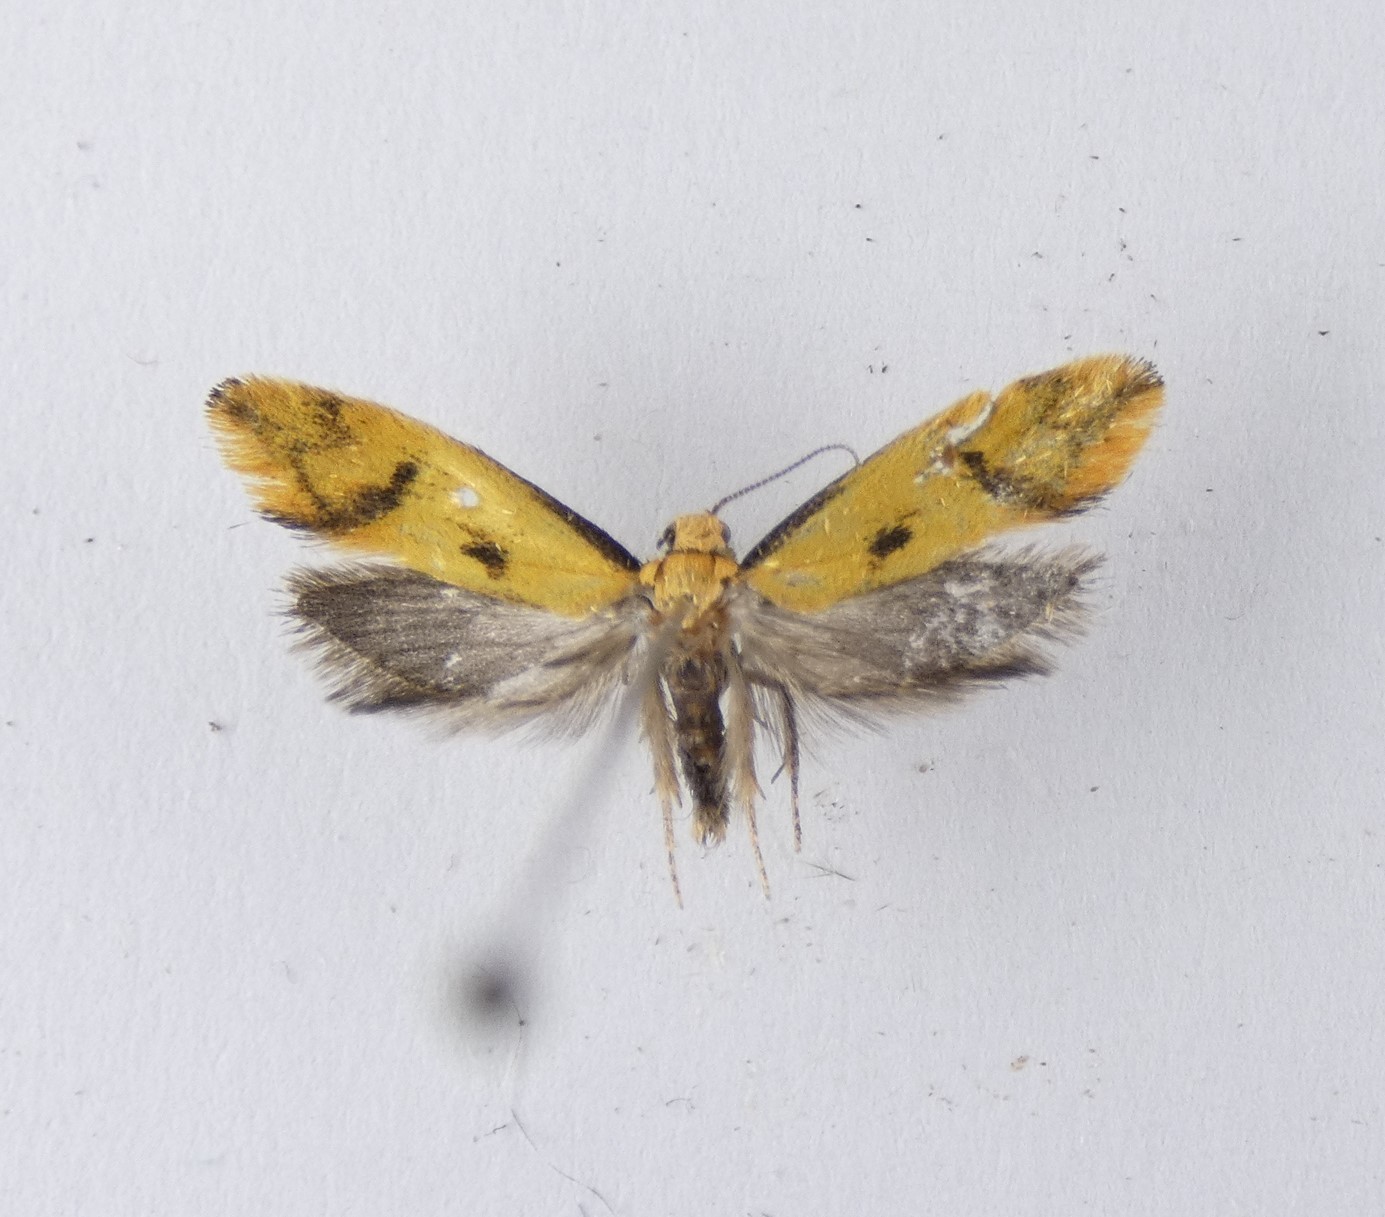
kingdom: Animalia
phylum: Arthropoda
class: Insecta
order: Lepidoptera
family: Oecophoridae
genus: Tingena
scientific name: Tingena actinias
